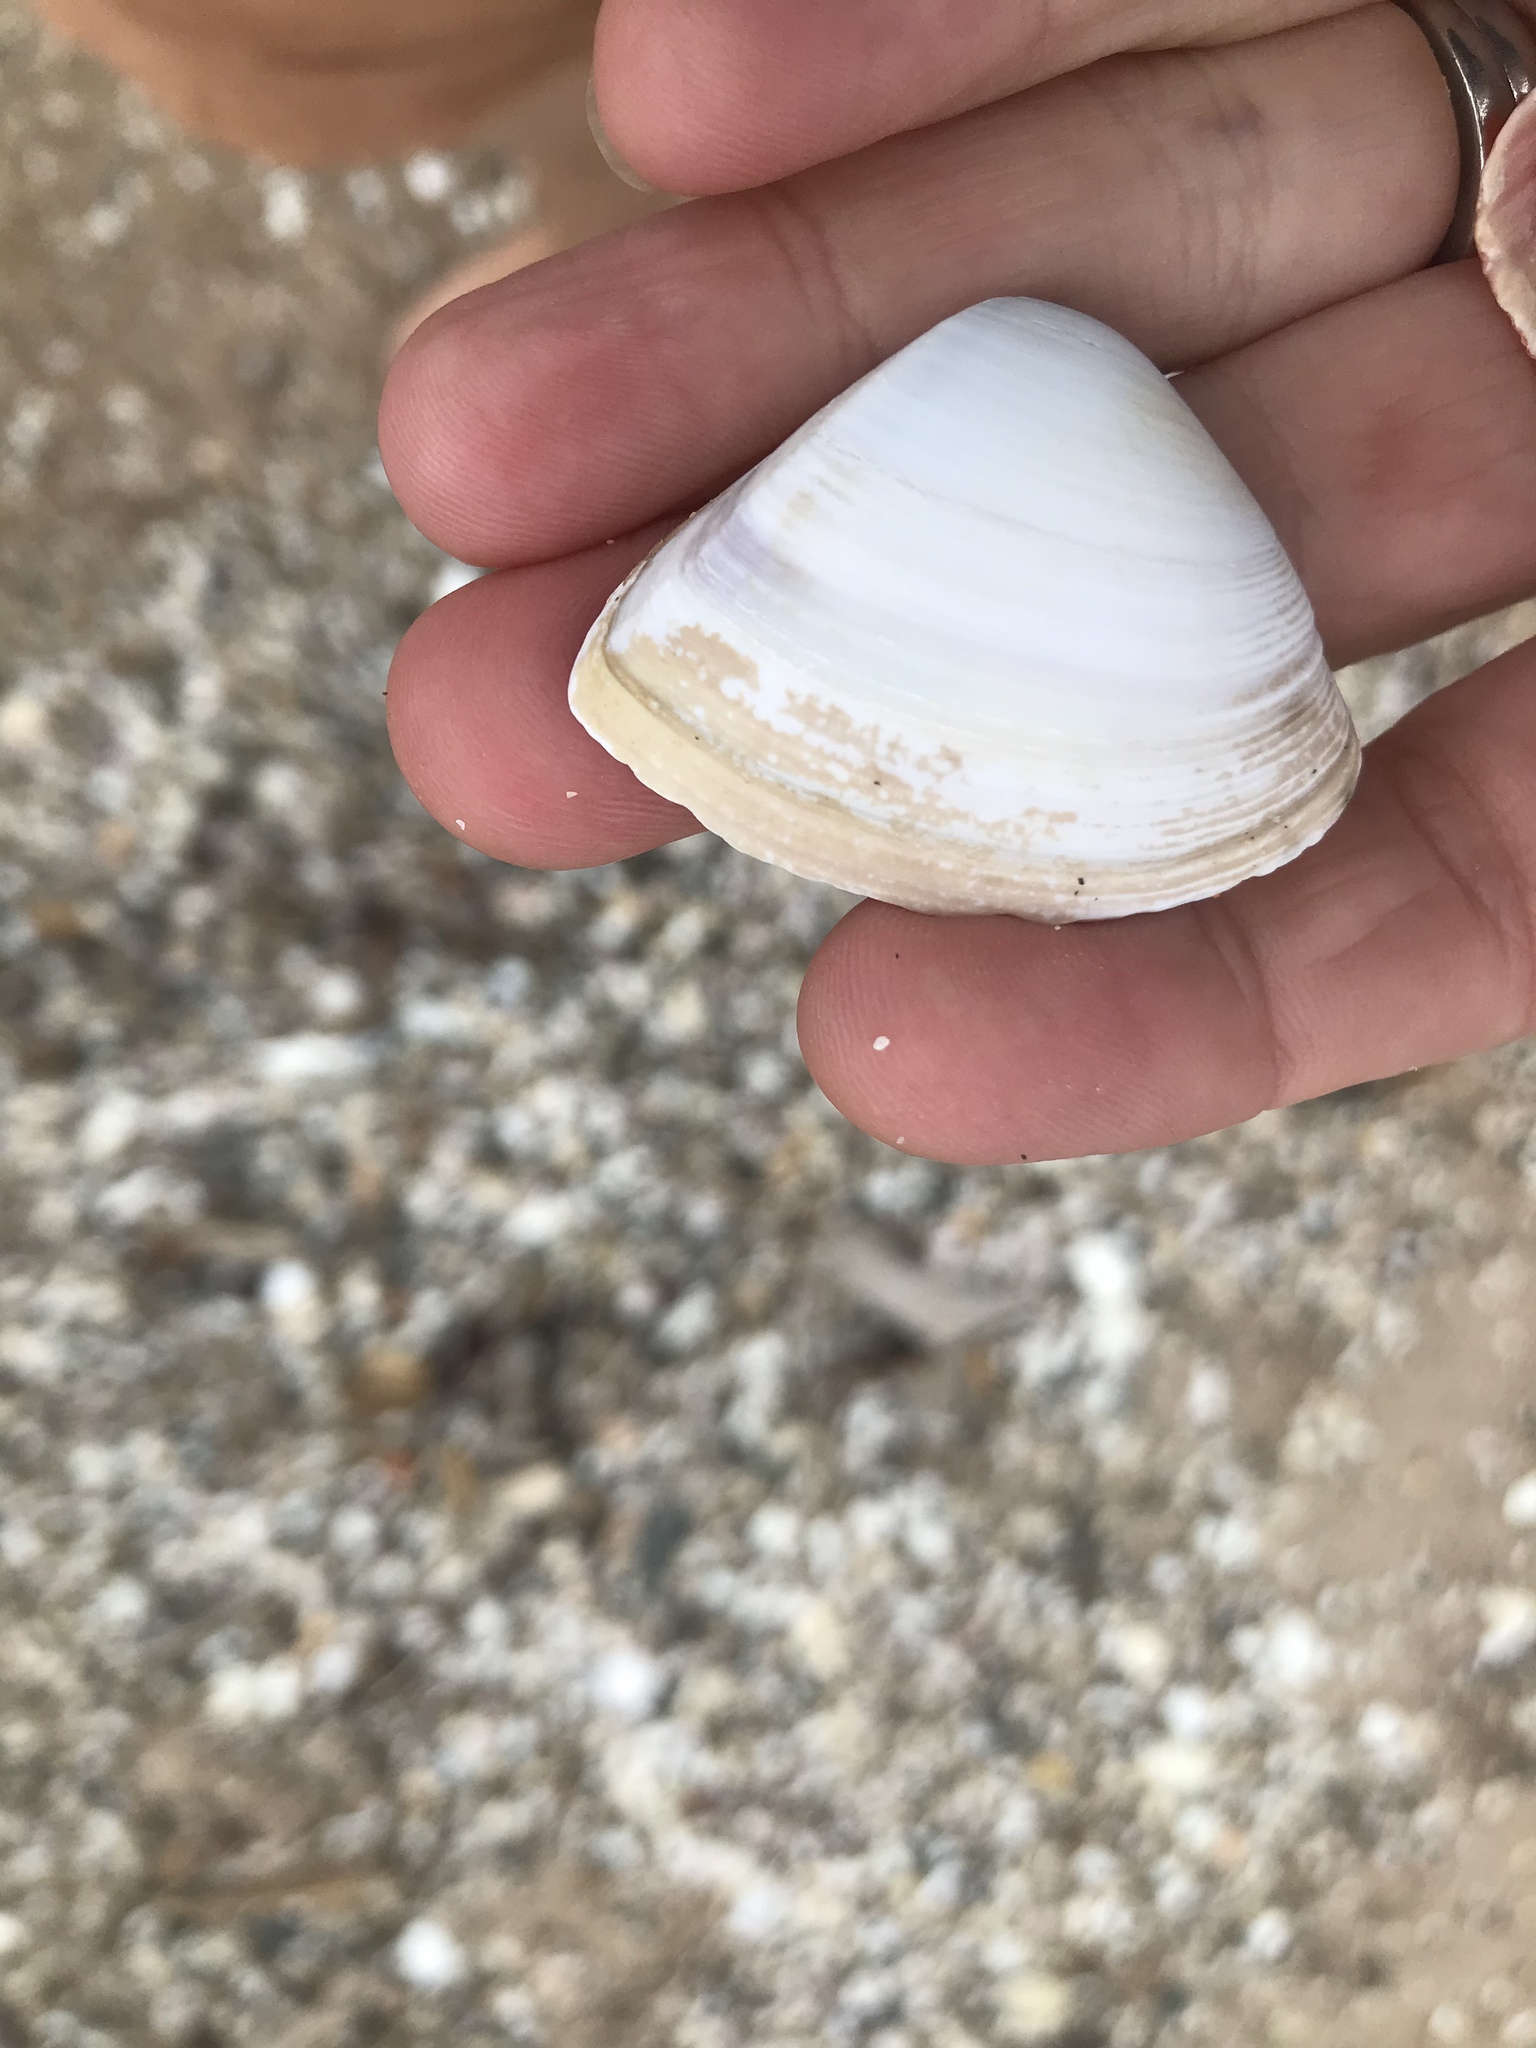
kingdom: Animalia
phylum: Mollusca
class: Bivalvia
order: Venerida
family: Mactridae
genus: Crassula
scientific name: Crassula aequilatera
